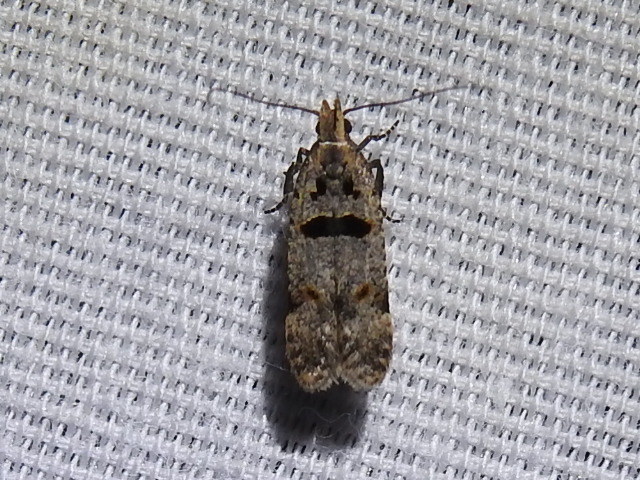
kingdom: Animalia
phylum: Arthropoda
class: Insecta
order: Lepidoptera
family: Gelechiidae
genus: Deltophora
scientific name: Deltophora glandiferella
